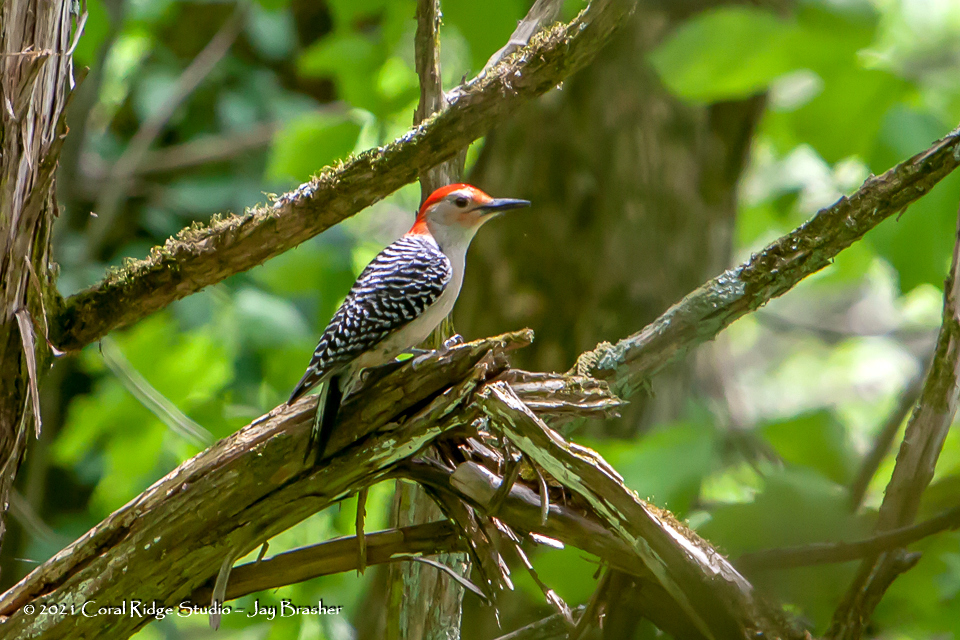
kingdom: Animalia
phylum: Chordata
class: Aves
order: Piciformes
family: Picidae
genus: Melanerpes
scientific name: Melanerpes carolinus
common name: Red-bellied woodpecker
